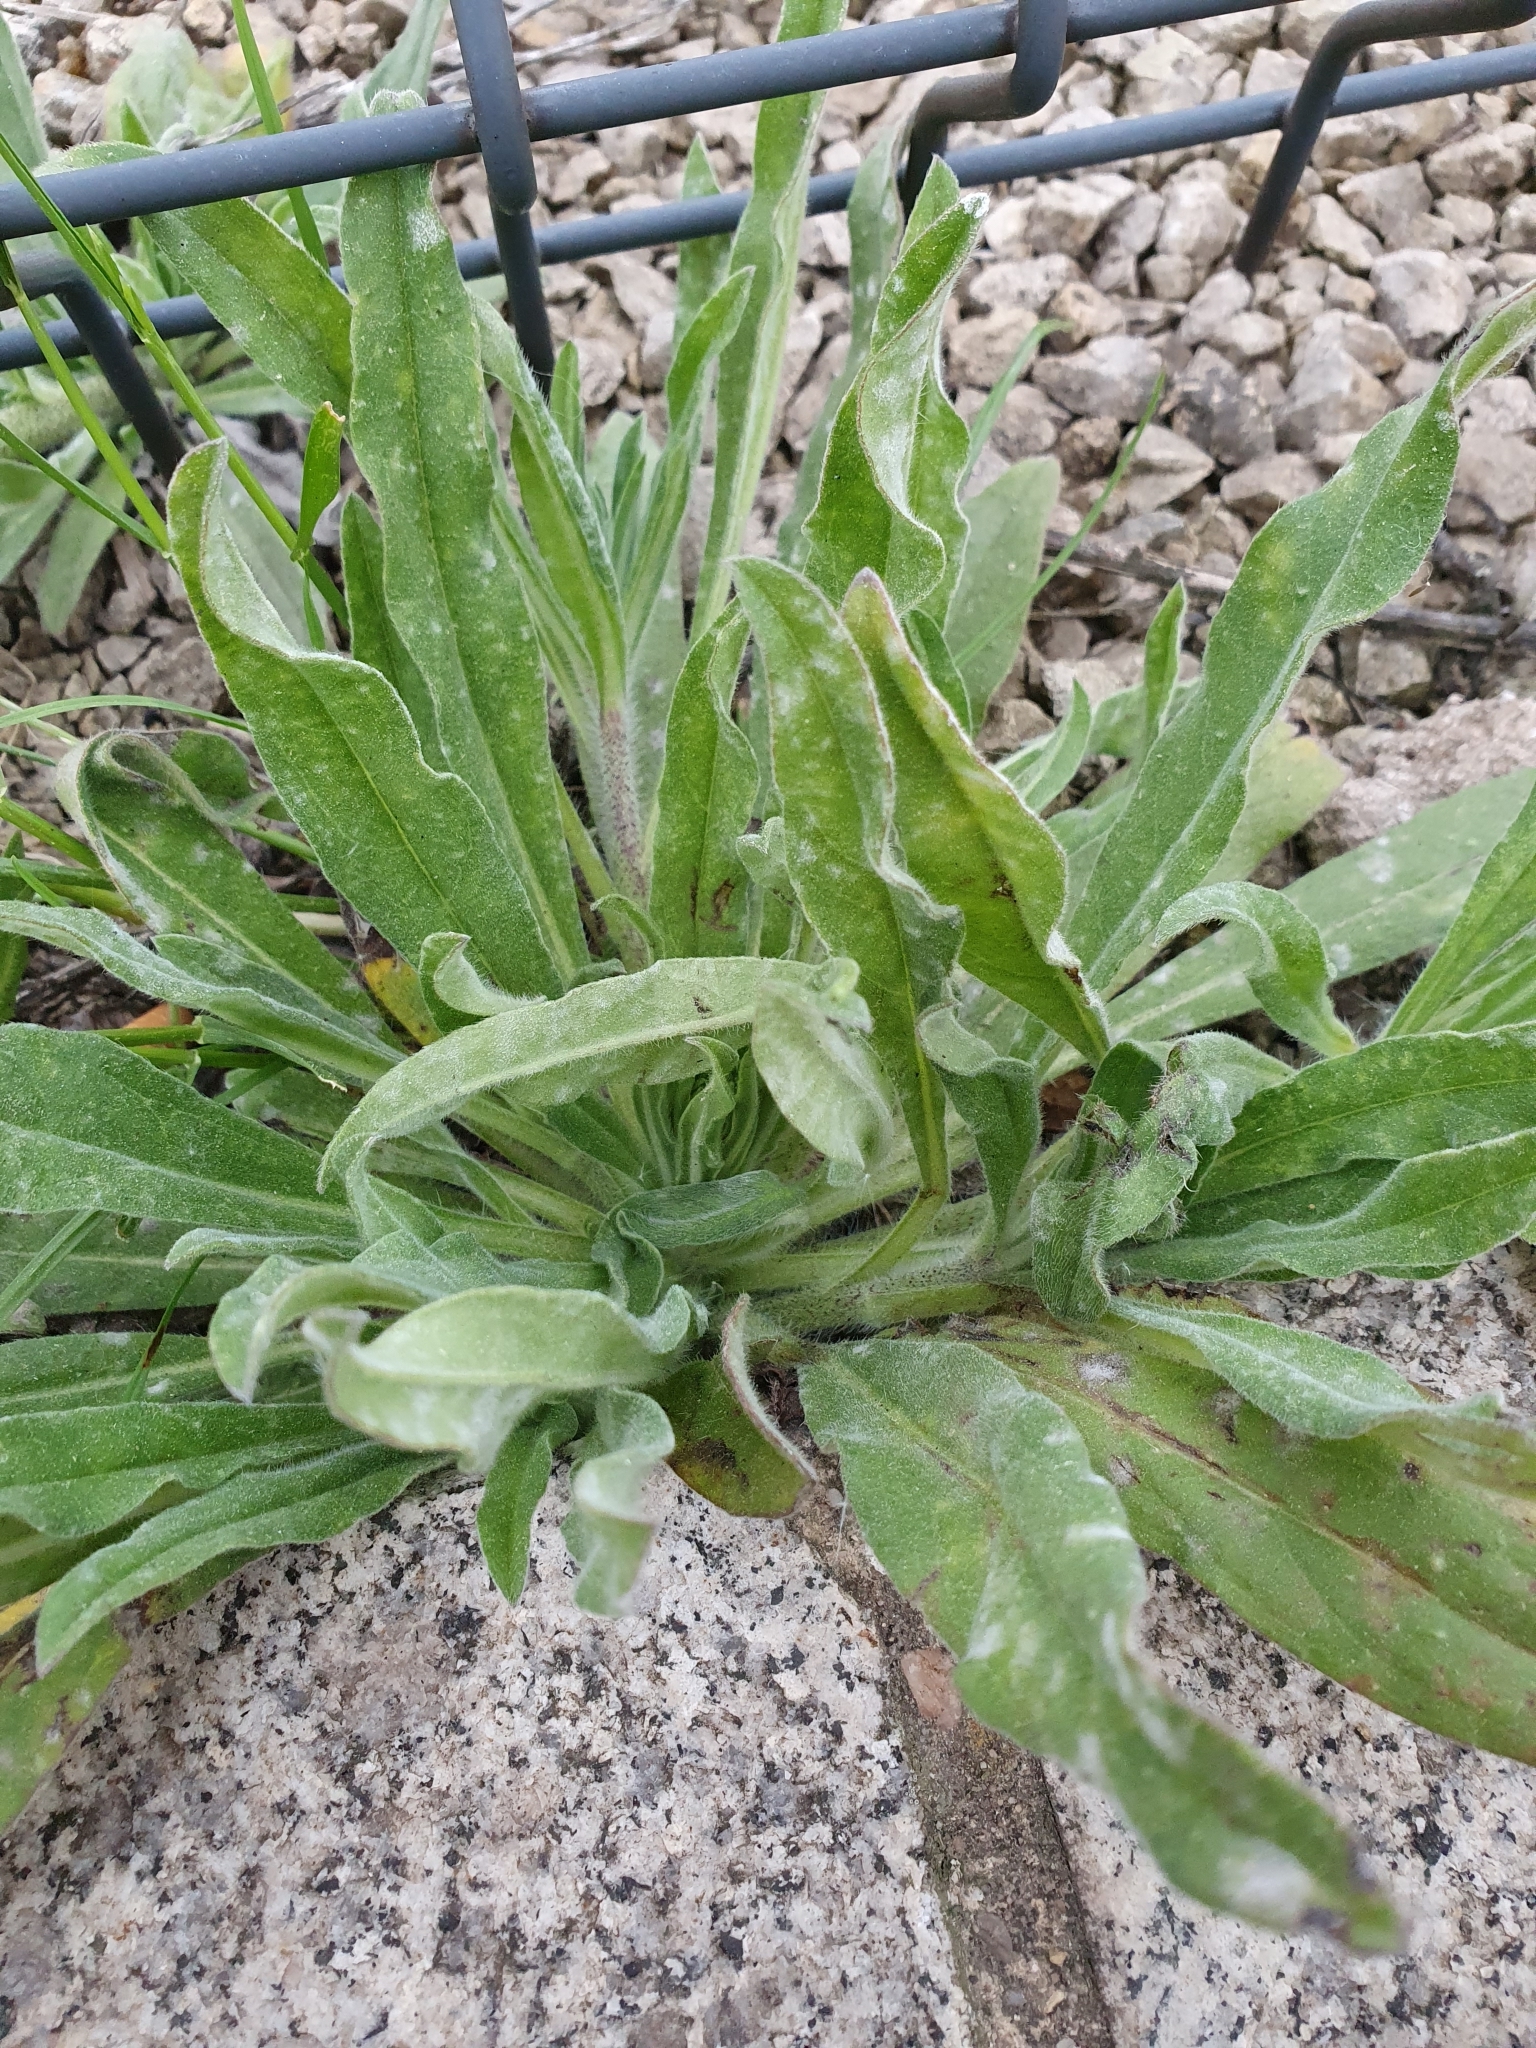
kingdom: Plantae
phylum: Tracheophyta
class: Magnoliopsida
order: Boraginales
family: Boraginaceae
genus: Echium
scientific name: Echium vulgare
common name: Common viper's bugloss
